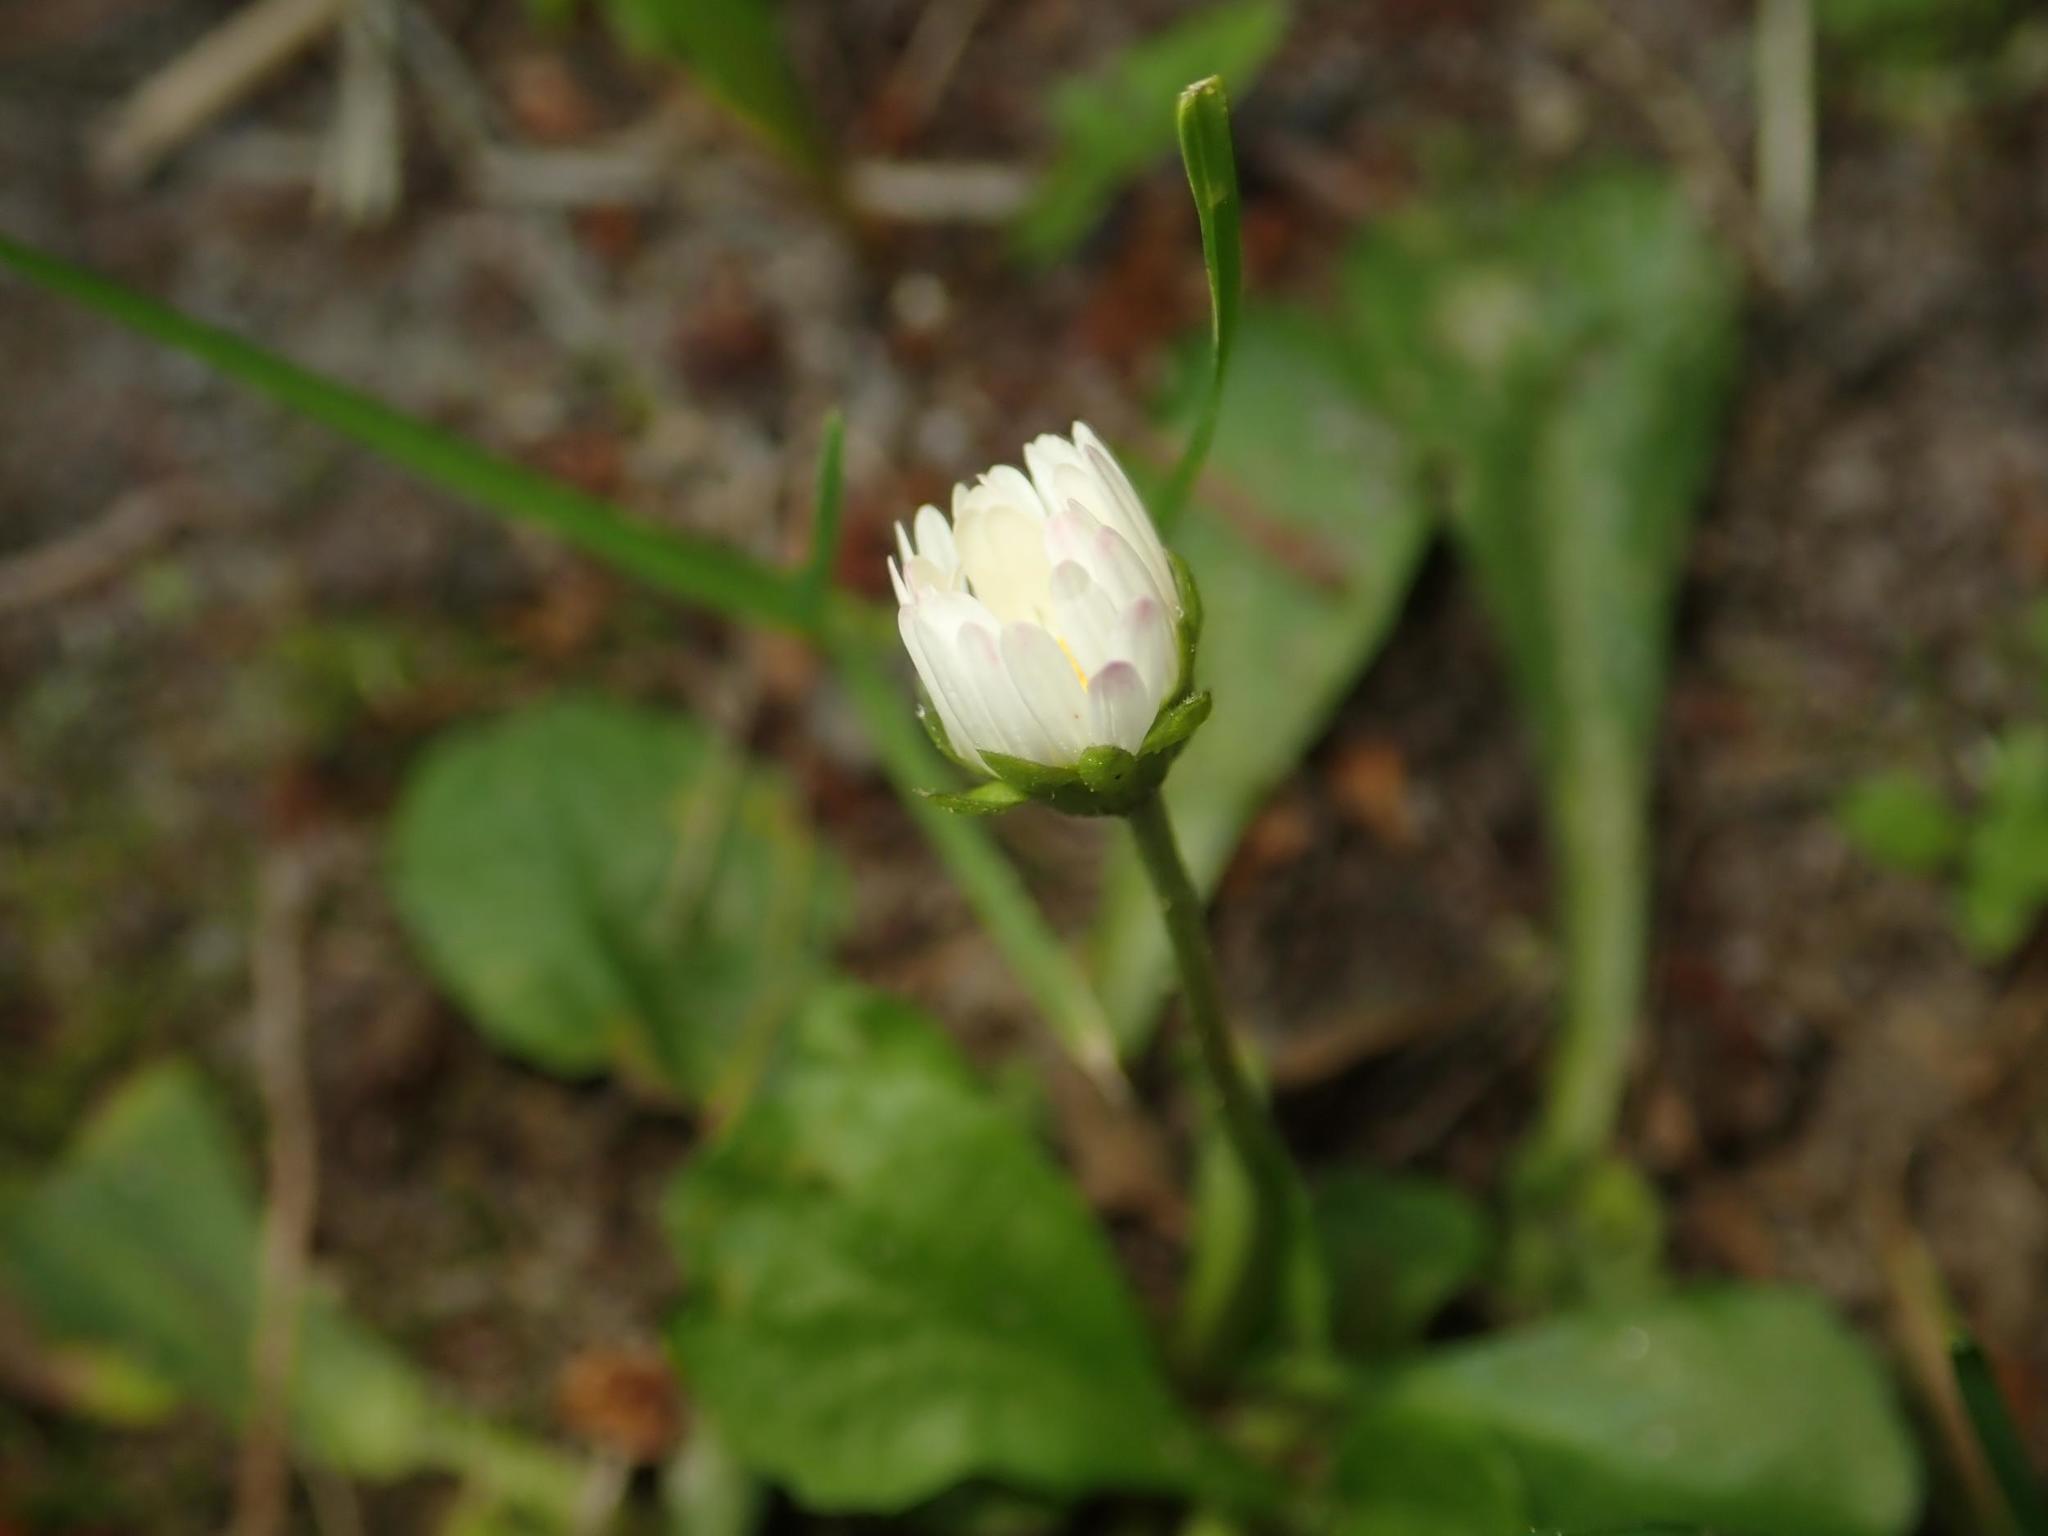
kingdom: Plantae
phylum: Tracheophyta
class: Magnoliopsida
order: Asterales
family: Asteraceae
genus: Bellis
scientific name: Bellis perennis
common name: Lawndaisy
